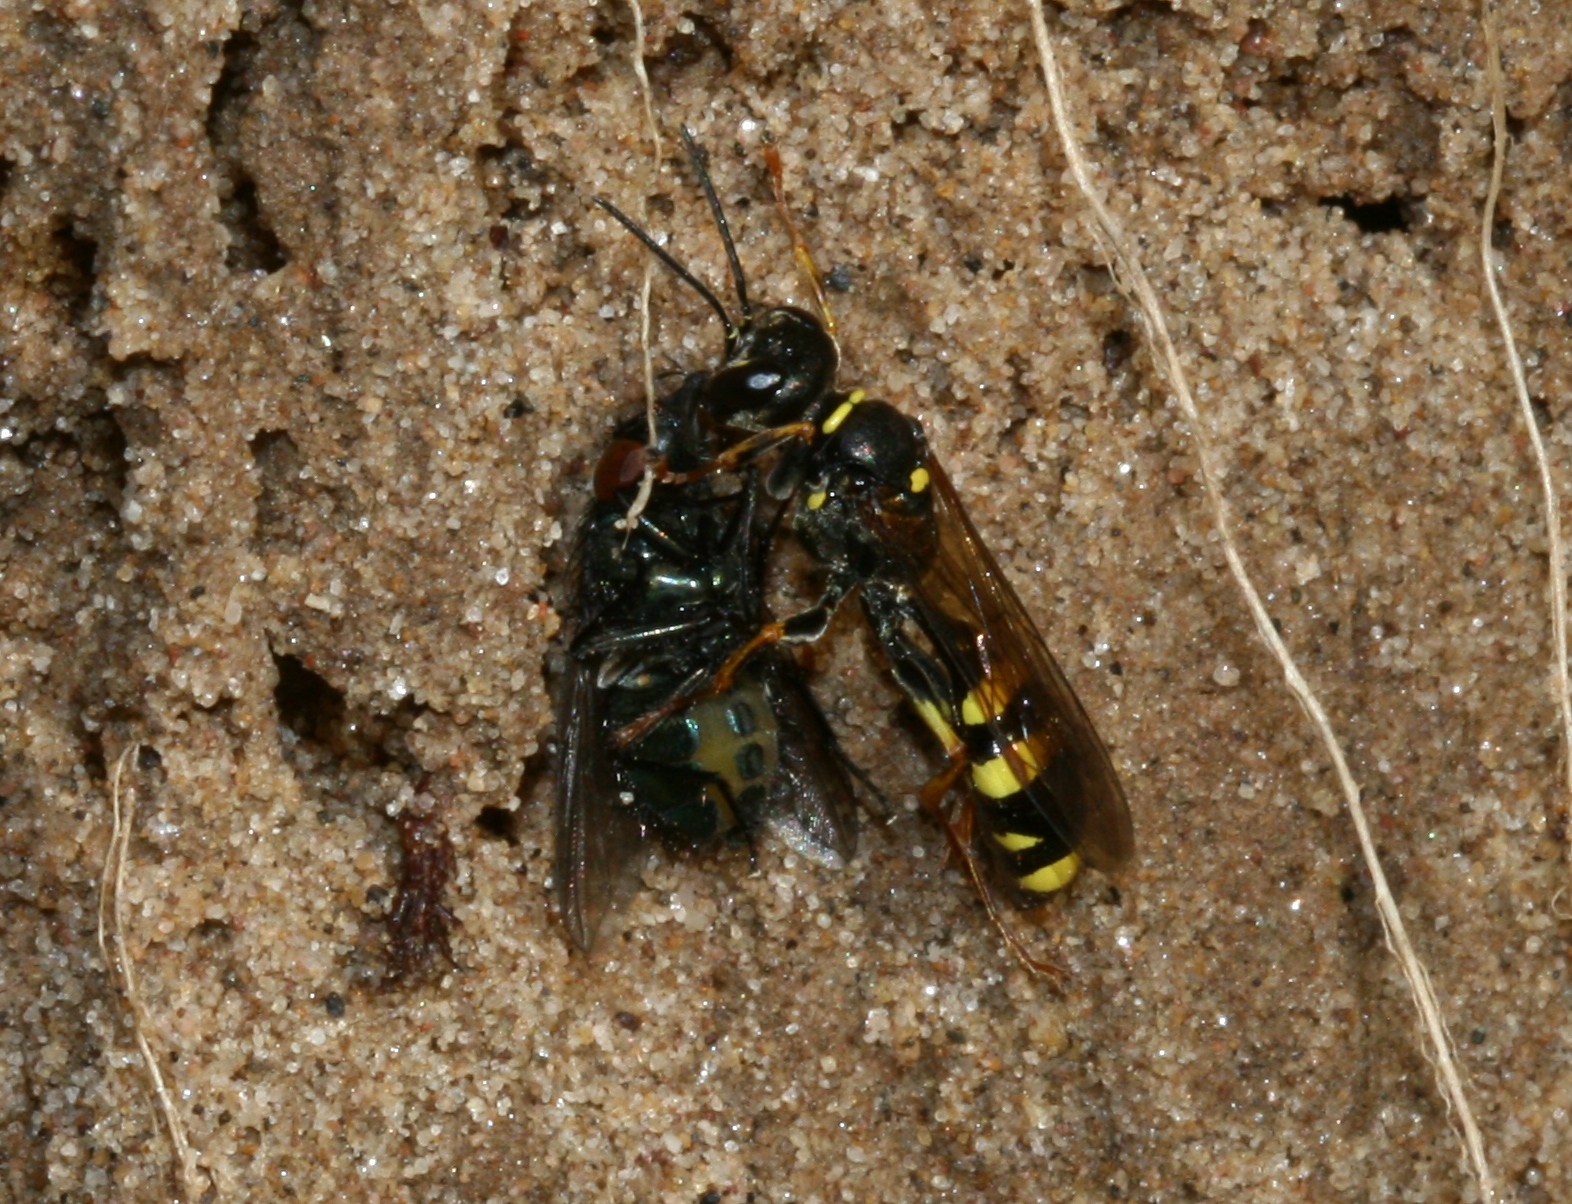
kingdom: Animalia
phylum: Arthropoda
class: Insecta
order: Hymenoptera
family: Crabronidae
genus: Mellinus
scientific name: Mellinus arvensis
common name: Field digger wasp
